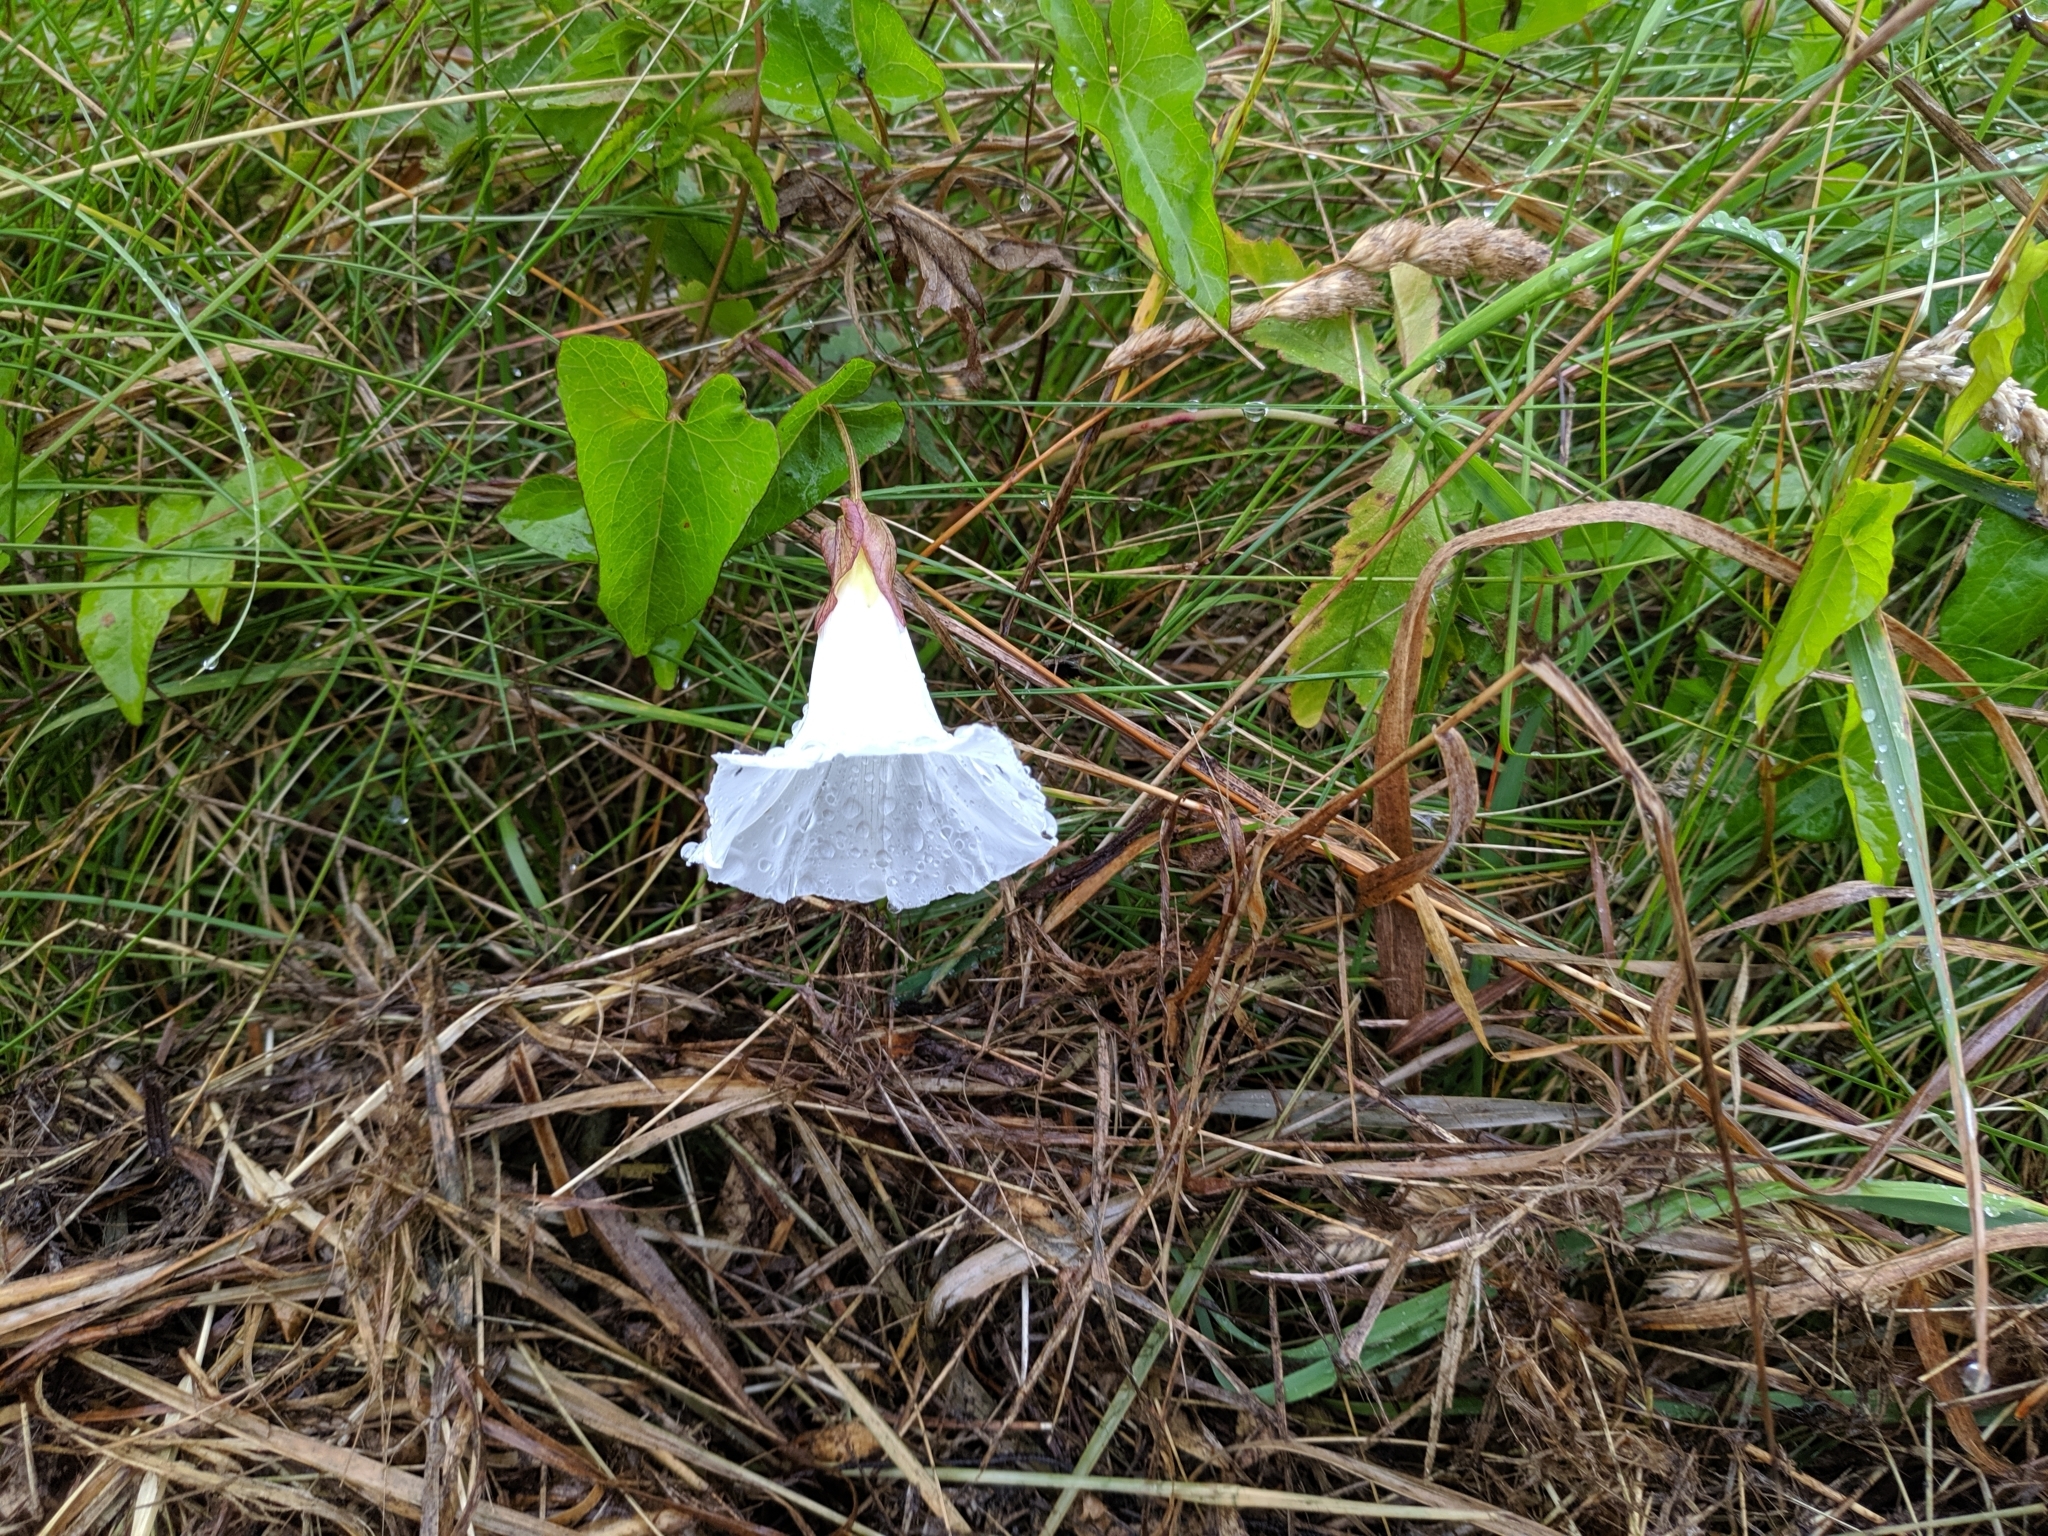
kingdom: Plantae
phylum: Tracheophyta
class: Magnoliopsida
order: Solanales
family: Convolvulaceae
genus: Calystegia
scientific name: Calystegia sepium
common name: Hedge bindweed
